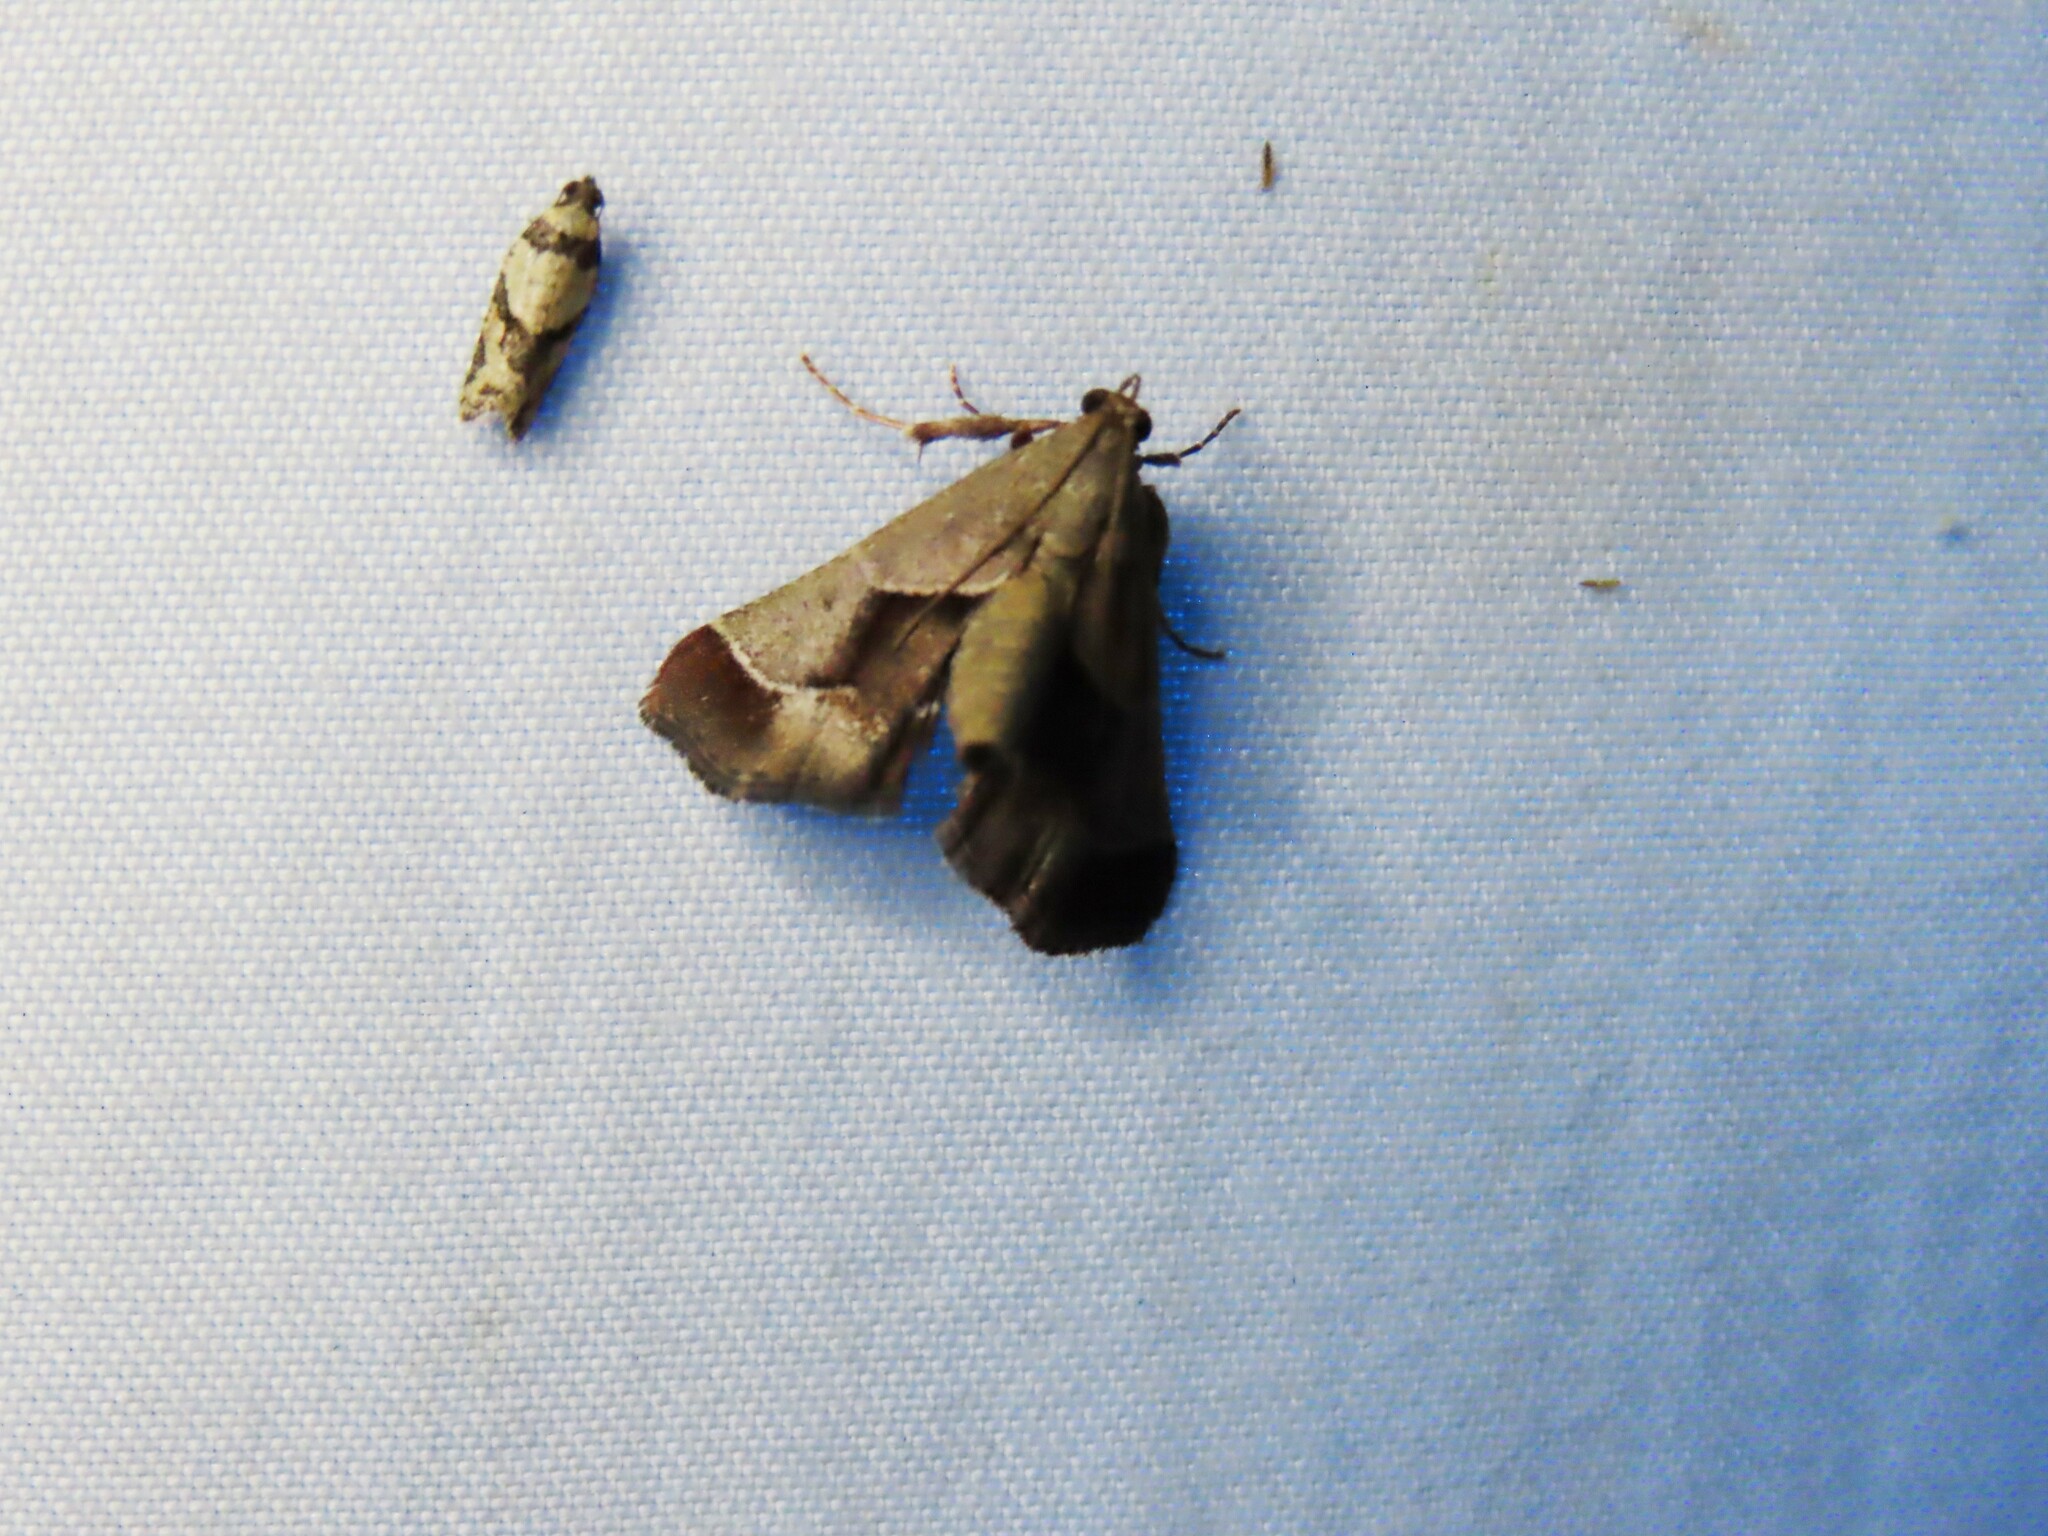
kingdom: Animalia
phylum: Arthropoda
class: Insecta
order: Lepidoptera
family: Pyralidae
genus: Gauna
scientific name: Gauna aegusalis
